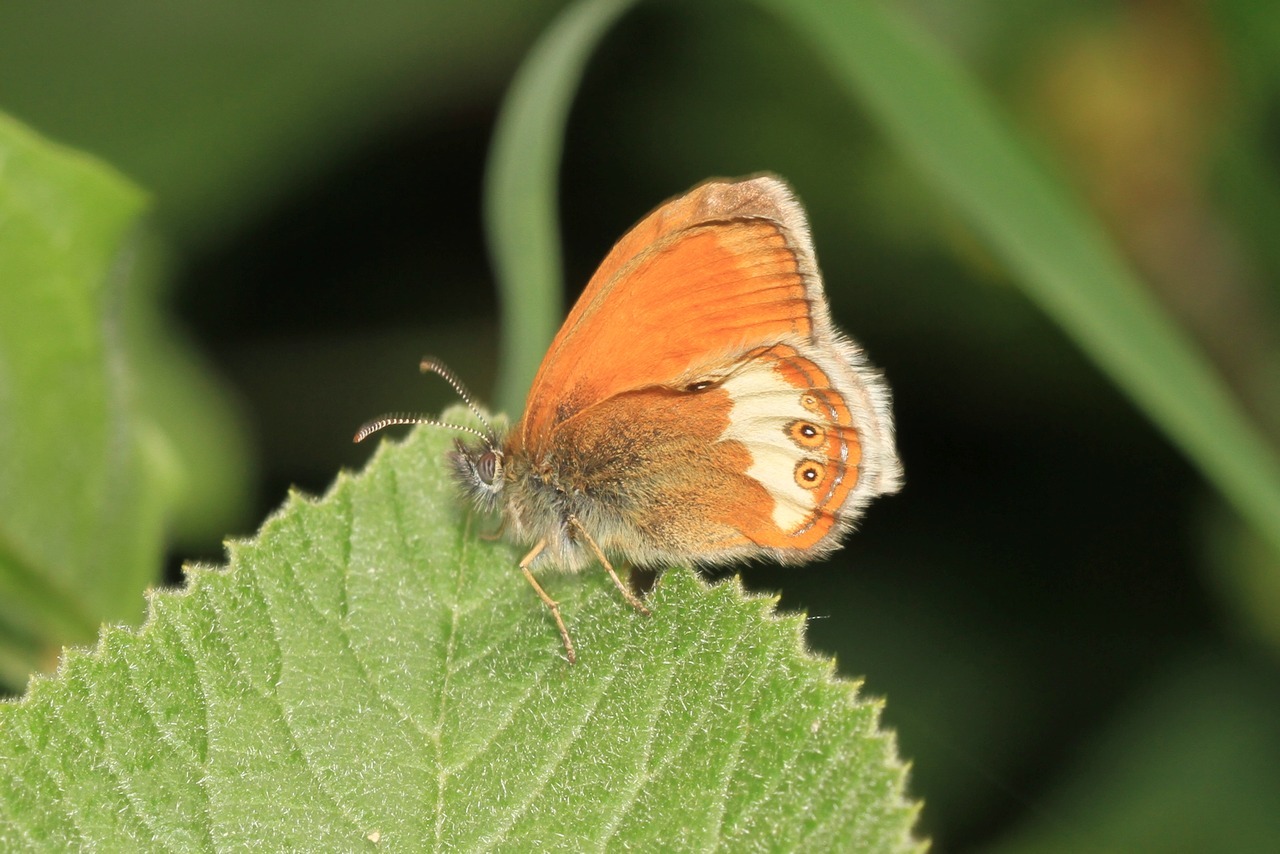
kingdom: Animalia
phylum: Arthropoda
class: Insecta
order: Lepidoptera
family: Nymphalidae
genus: Coenonympha
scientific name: Coenonympha arcania
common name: Pearly heath
